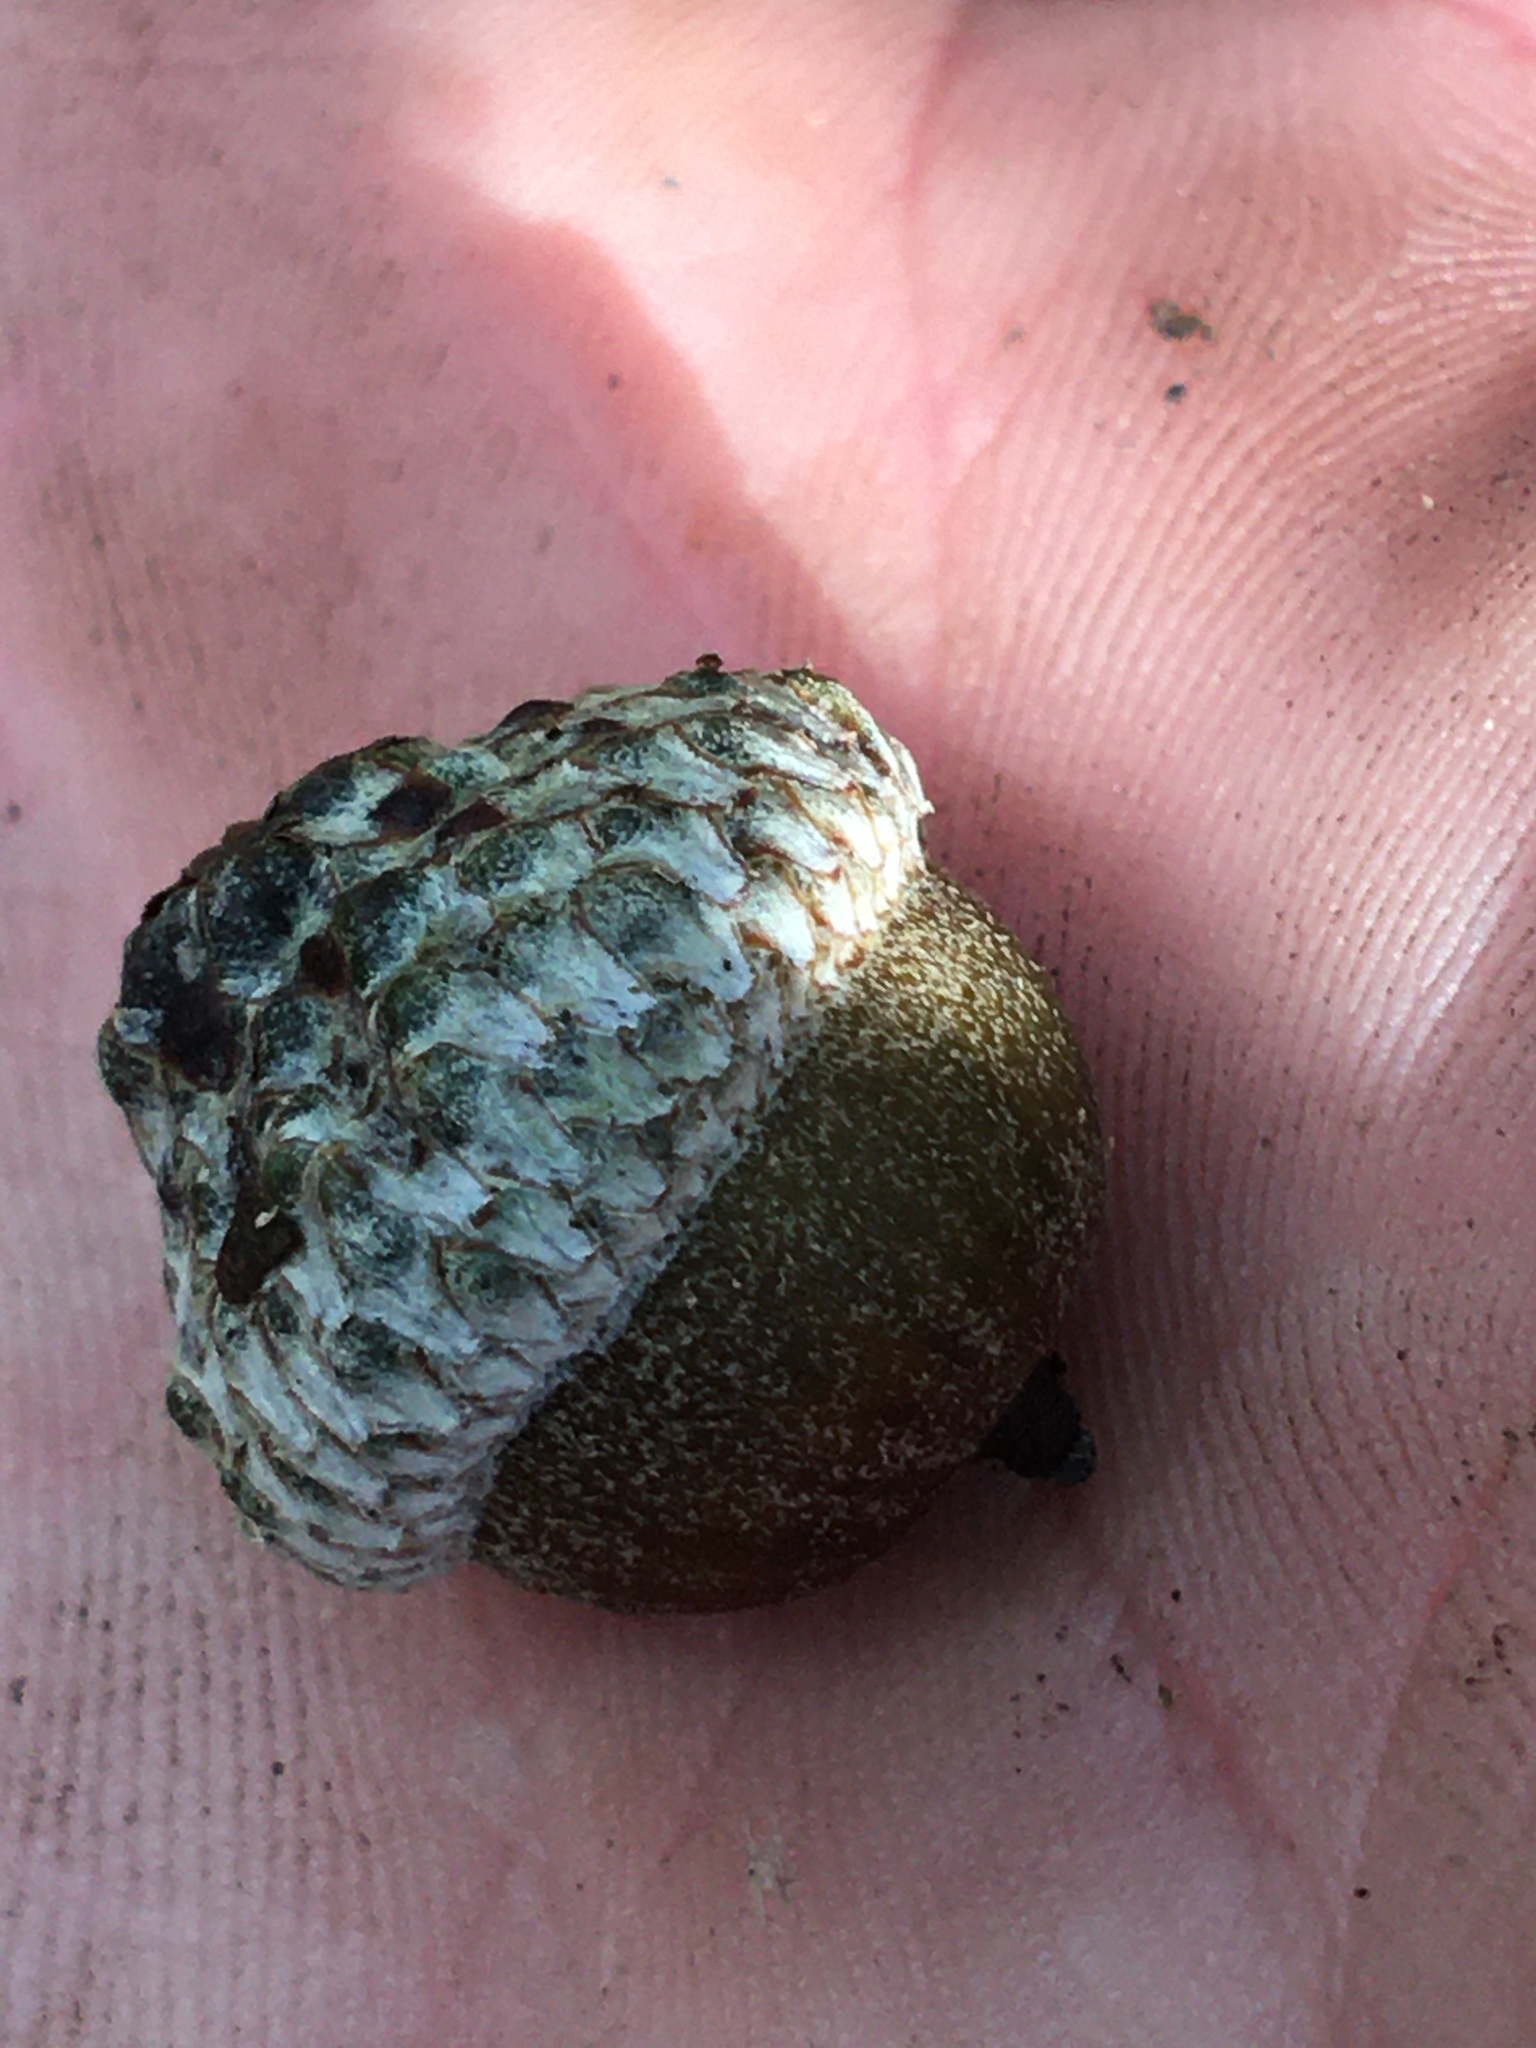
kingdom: Plantae
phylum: Tracheophyta
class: Magnoliopsida
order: Fagales
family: Fagaceae
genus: Quercus
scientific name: Quercus pagoda
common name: Cherrybark oak
